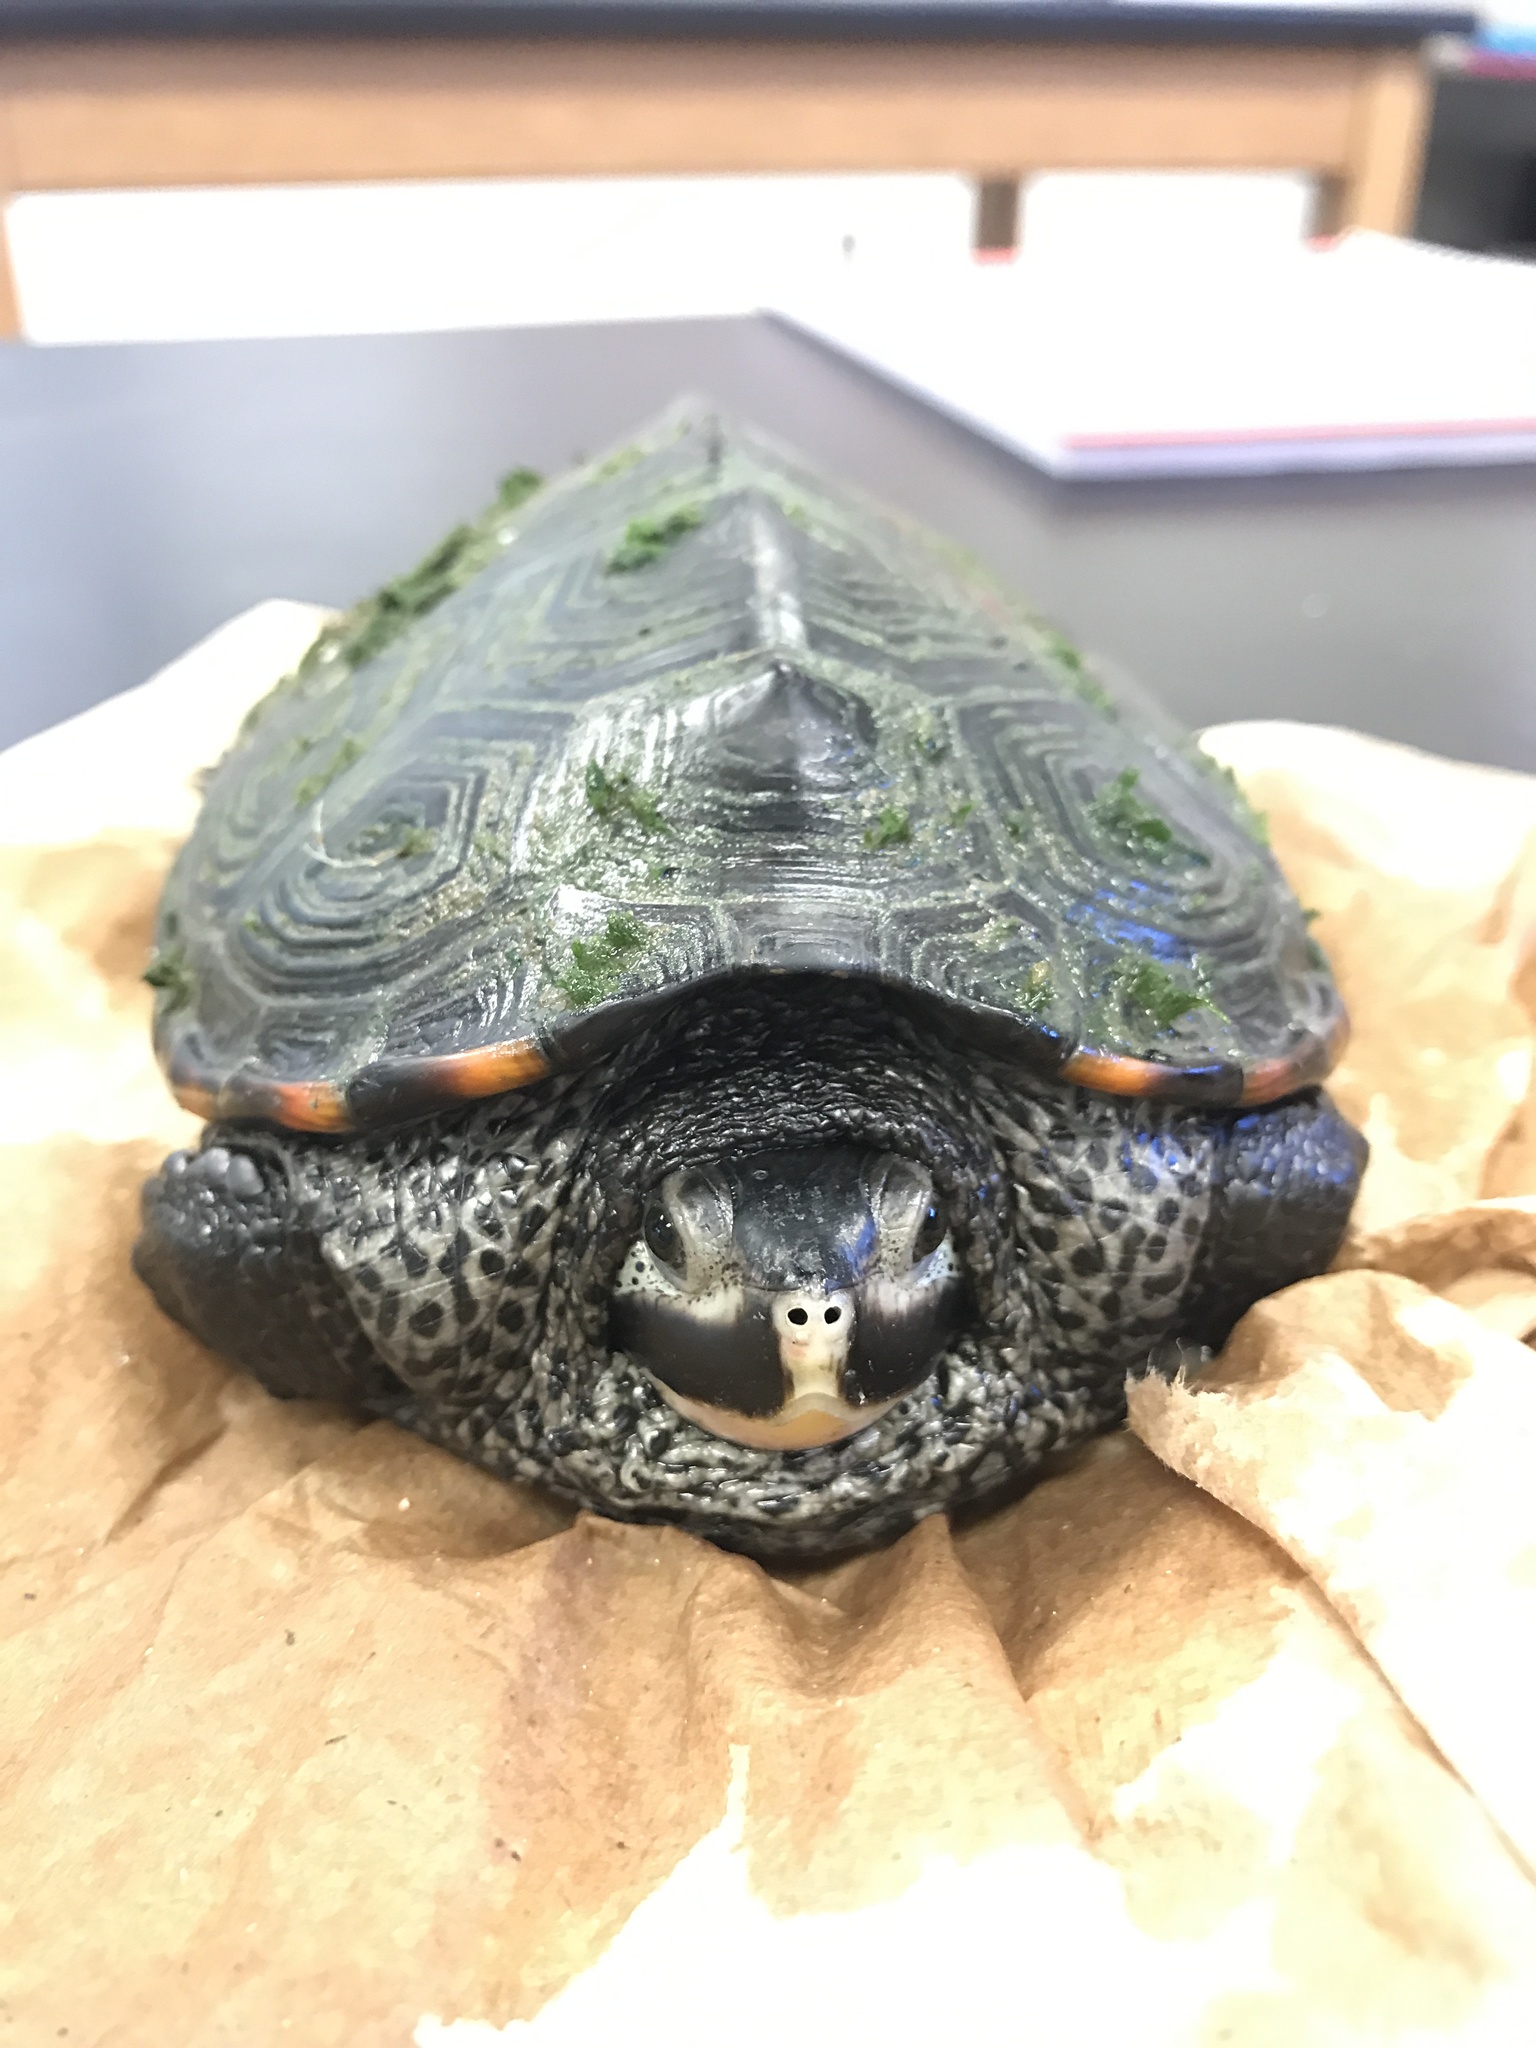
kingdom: Animalia
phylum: Chordata
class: Testudines
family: Emydidae
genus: Malaclemys
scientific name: Malaclemys terrapin
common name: Diamondback terrapin
